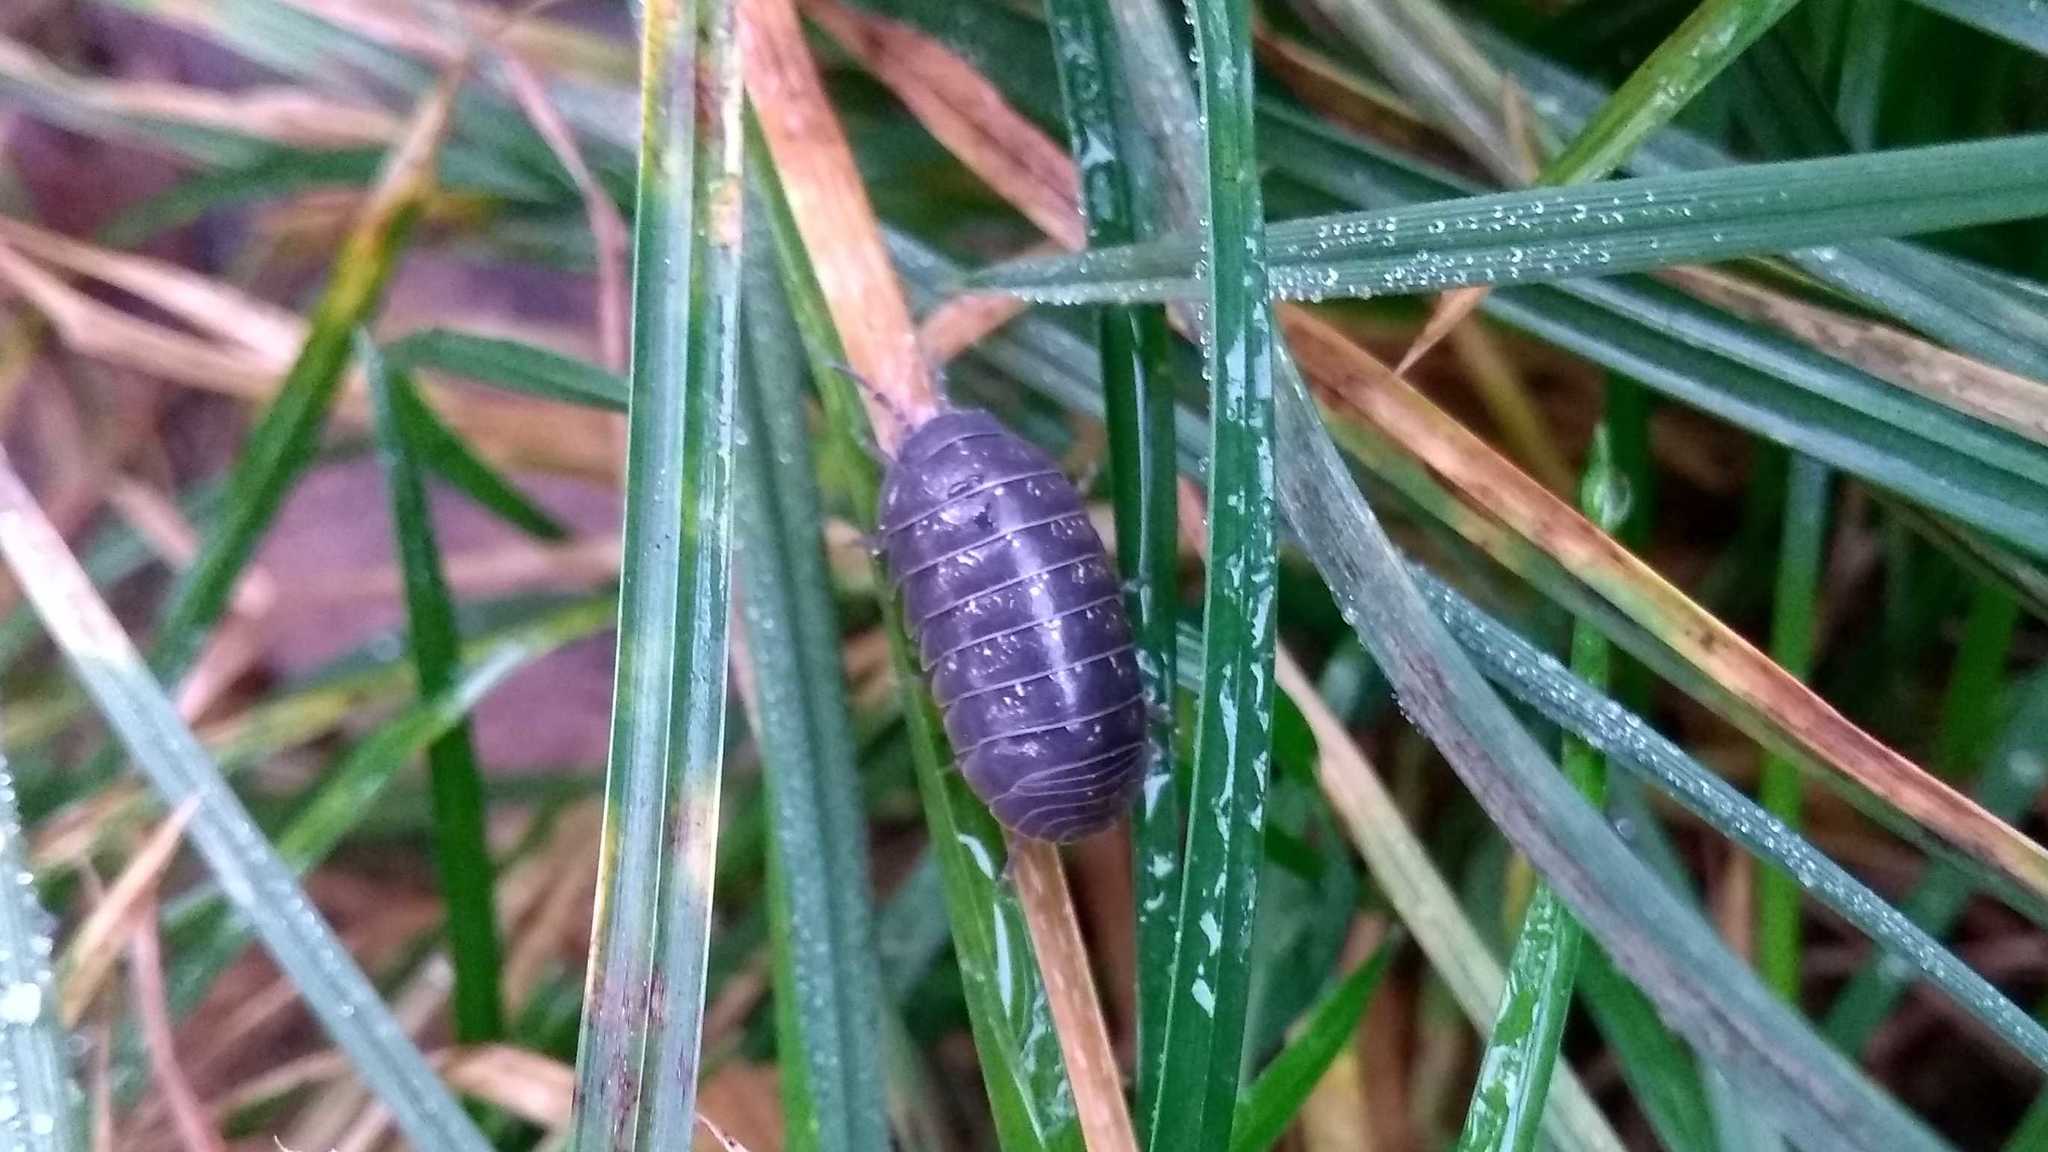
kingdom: Animalia
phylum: Arthropoda
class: Malacostraca
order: Isopoda
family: Armadillidiidae
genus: Armadillidium
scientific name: Armadillidium vulgare
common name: Common pill woodlouse
